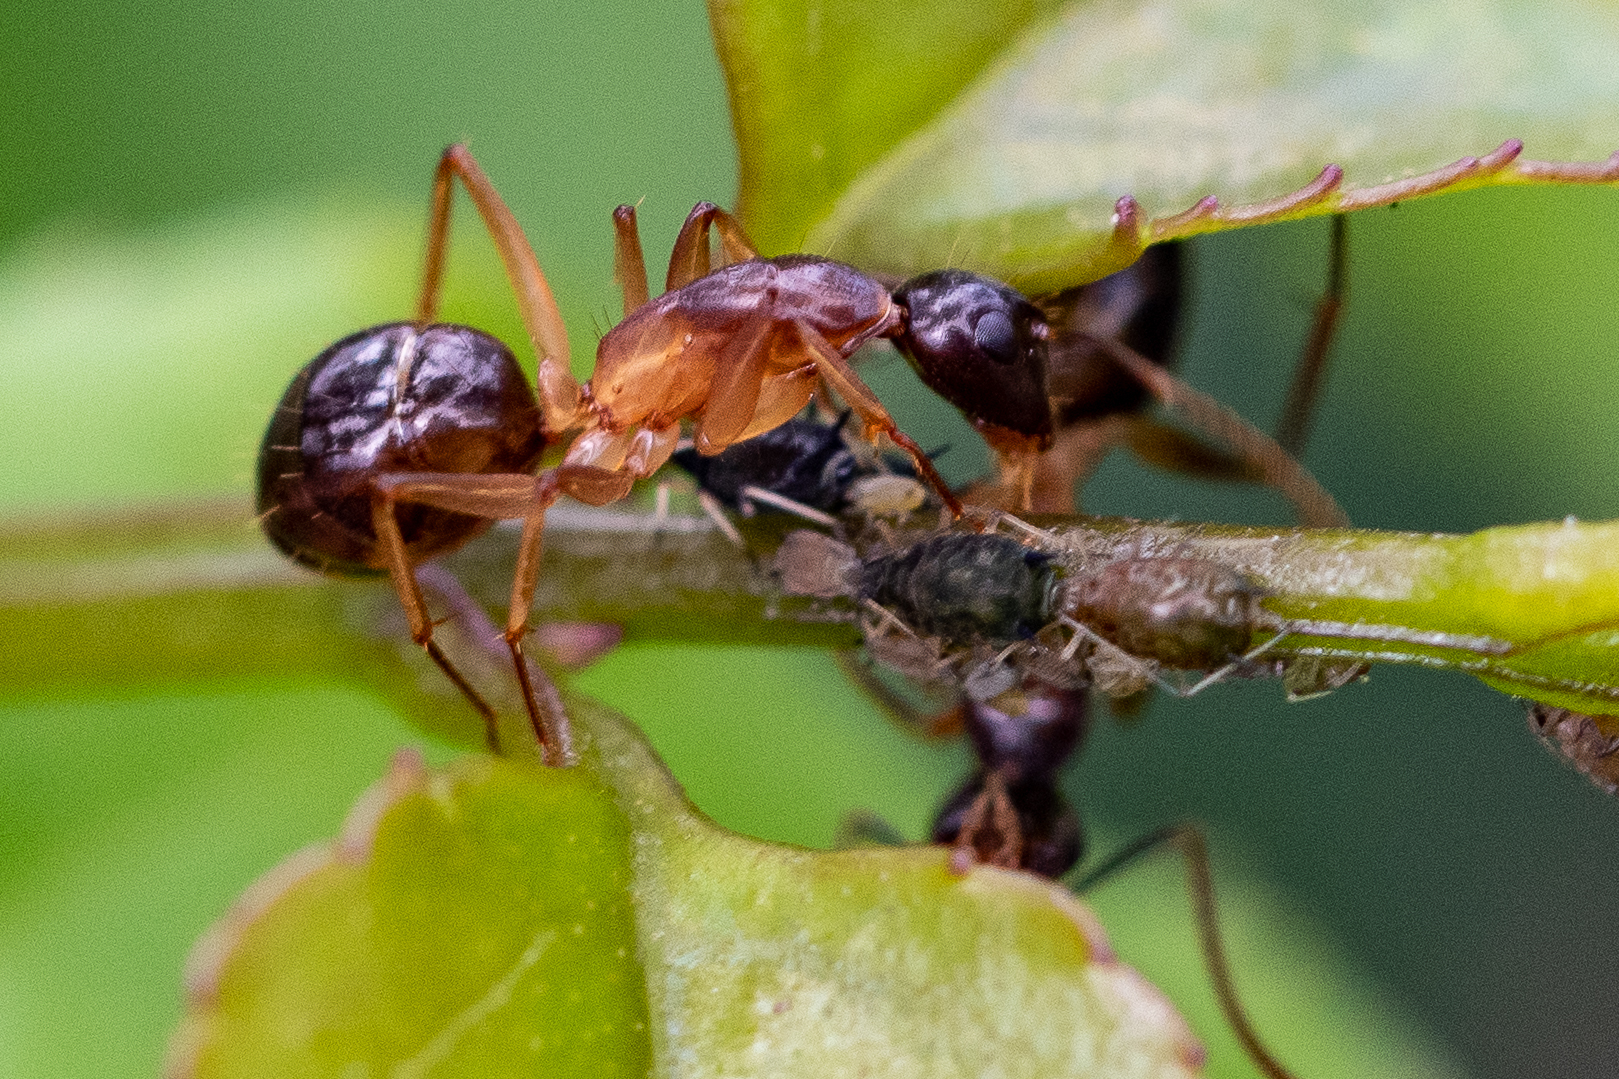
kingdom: Animalia
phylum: Arthropoda
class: Insecta
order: Hymenoptera
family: Formicidae
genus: Camponotus
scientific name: Camponotus baynei
